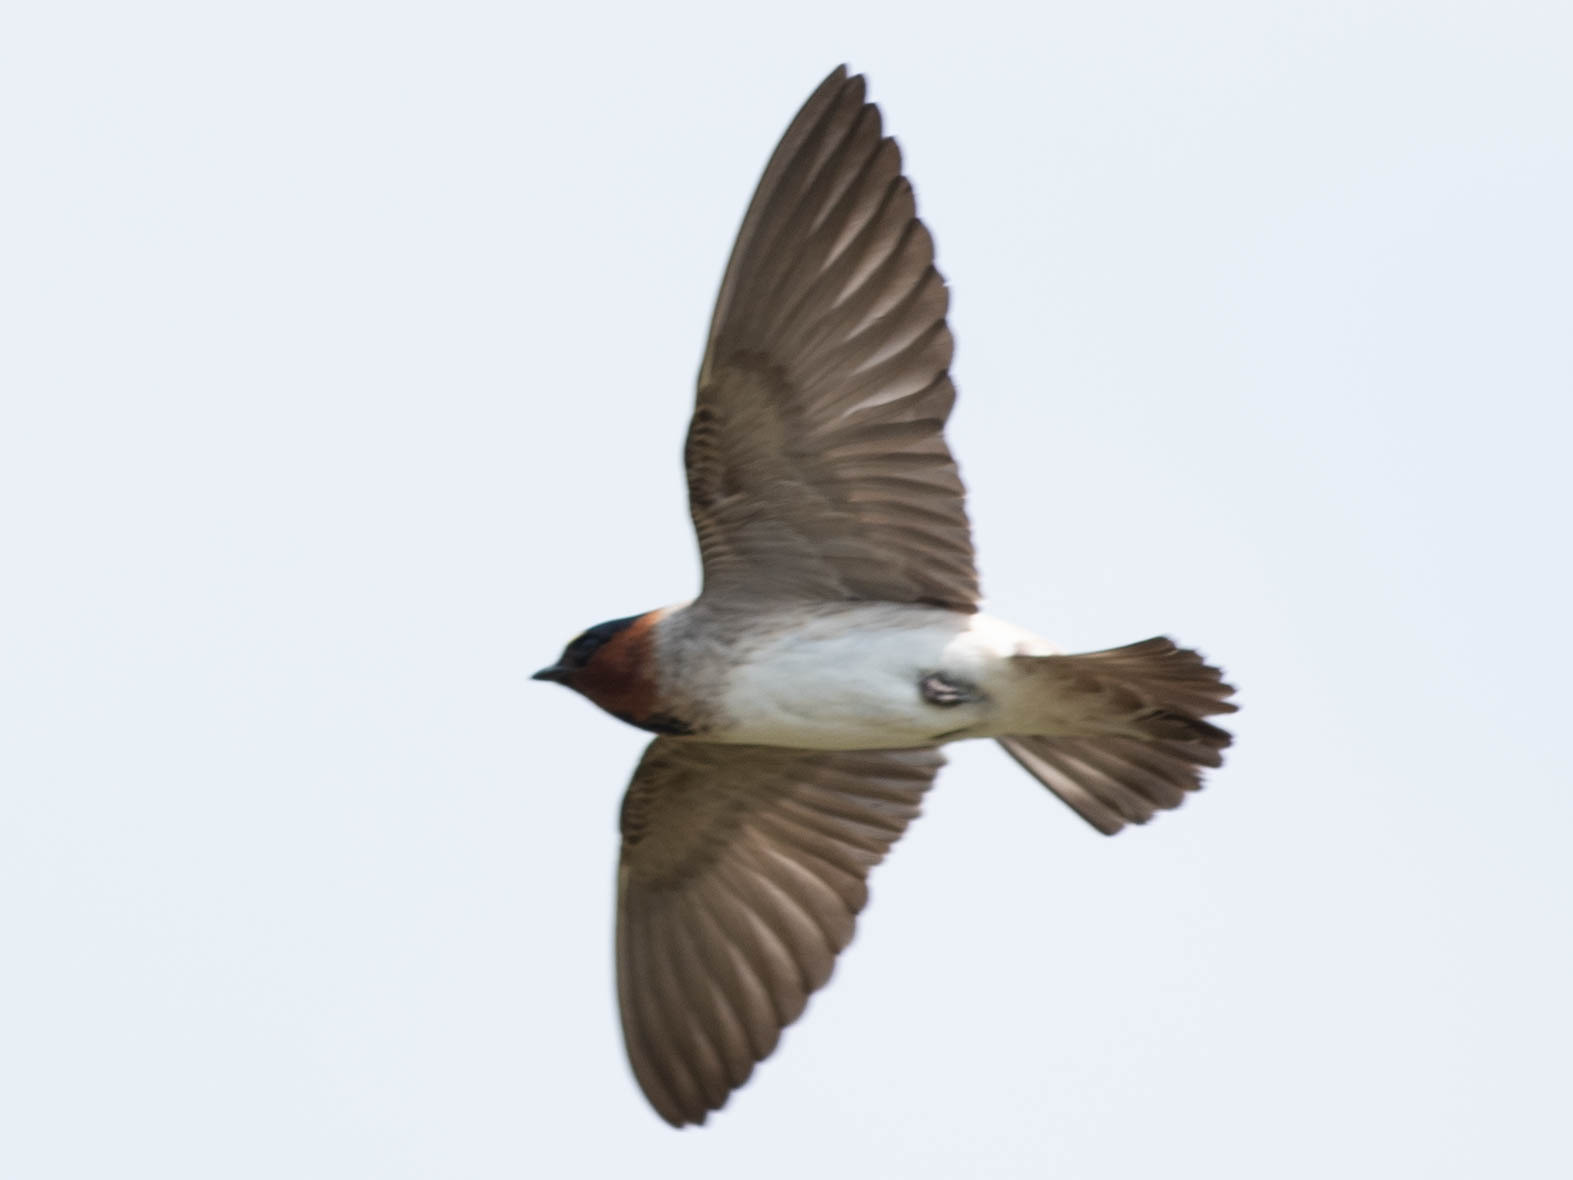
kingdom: Animalia
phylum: Chordata
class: Aves
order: Passeriformes
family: Hirundinidae
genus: Petrochelidon
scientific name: Petrochelidon pyrrhonota
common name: American cliff swallow
